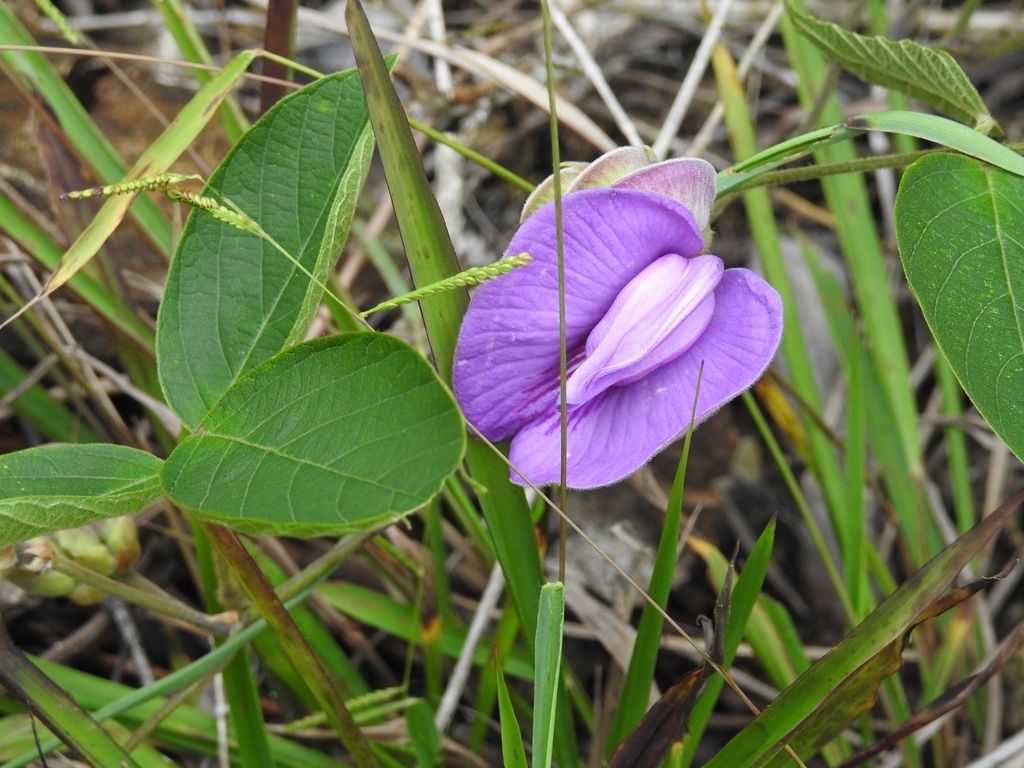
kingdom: Plantae
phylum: Tracheophyta
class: Magnoliopsida
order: Fabales
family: Fabaceae
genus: Centrosema
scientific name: Centrosema virginianum
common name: Butterfly-pea
